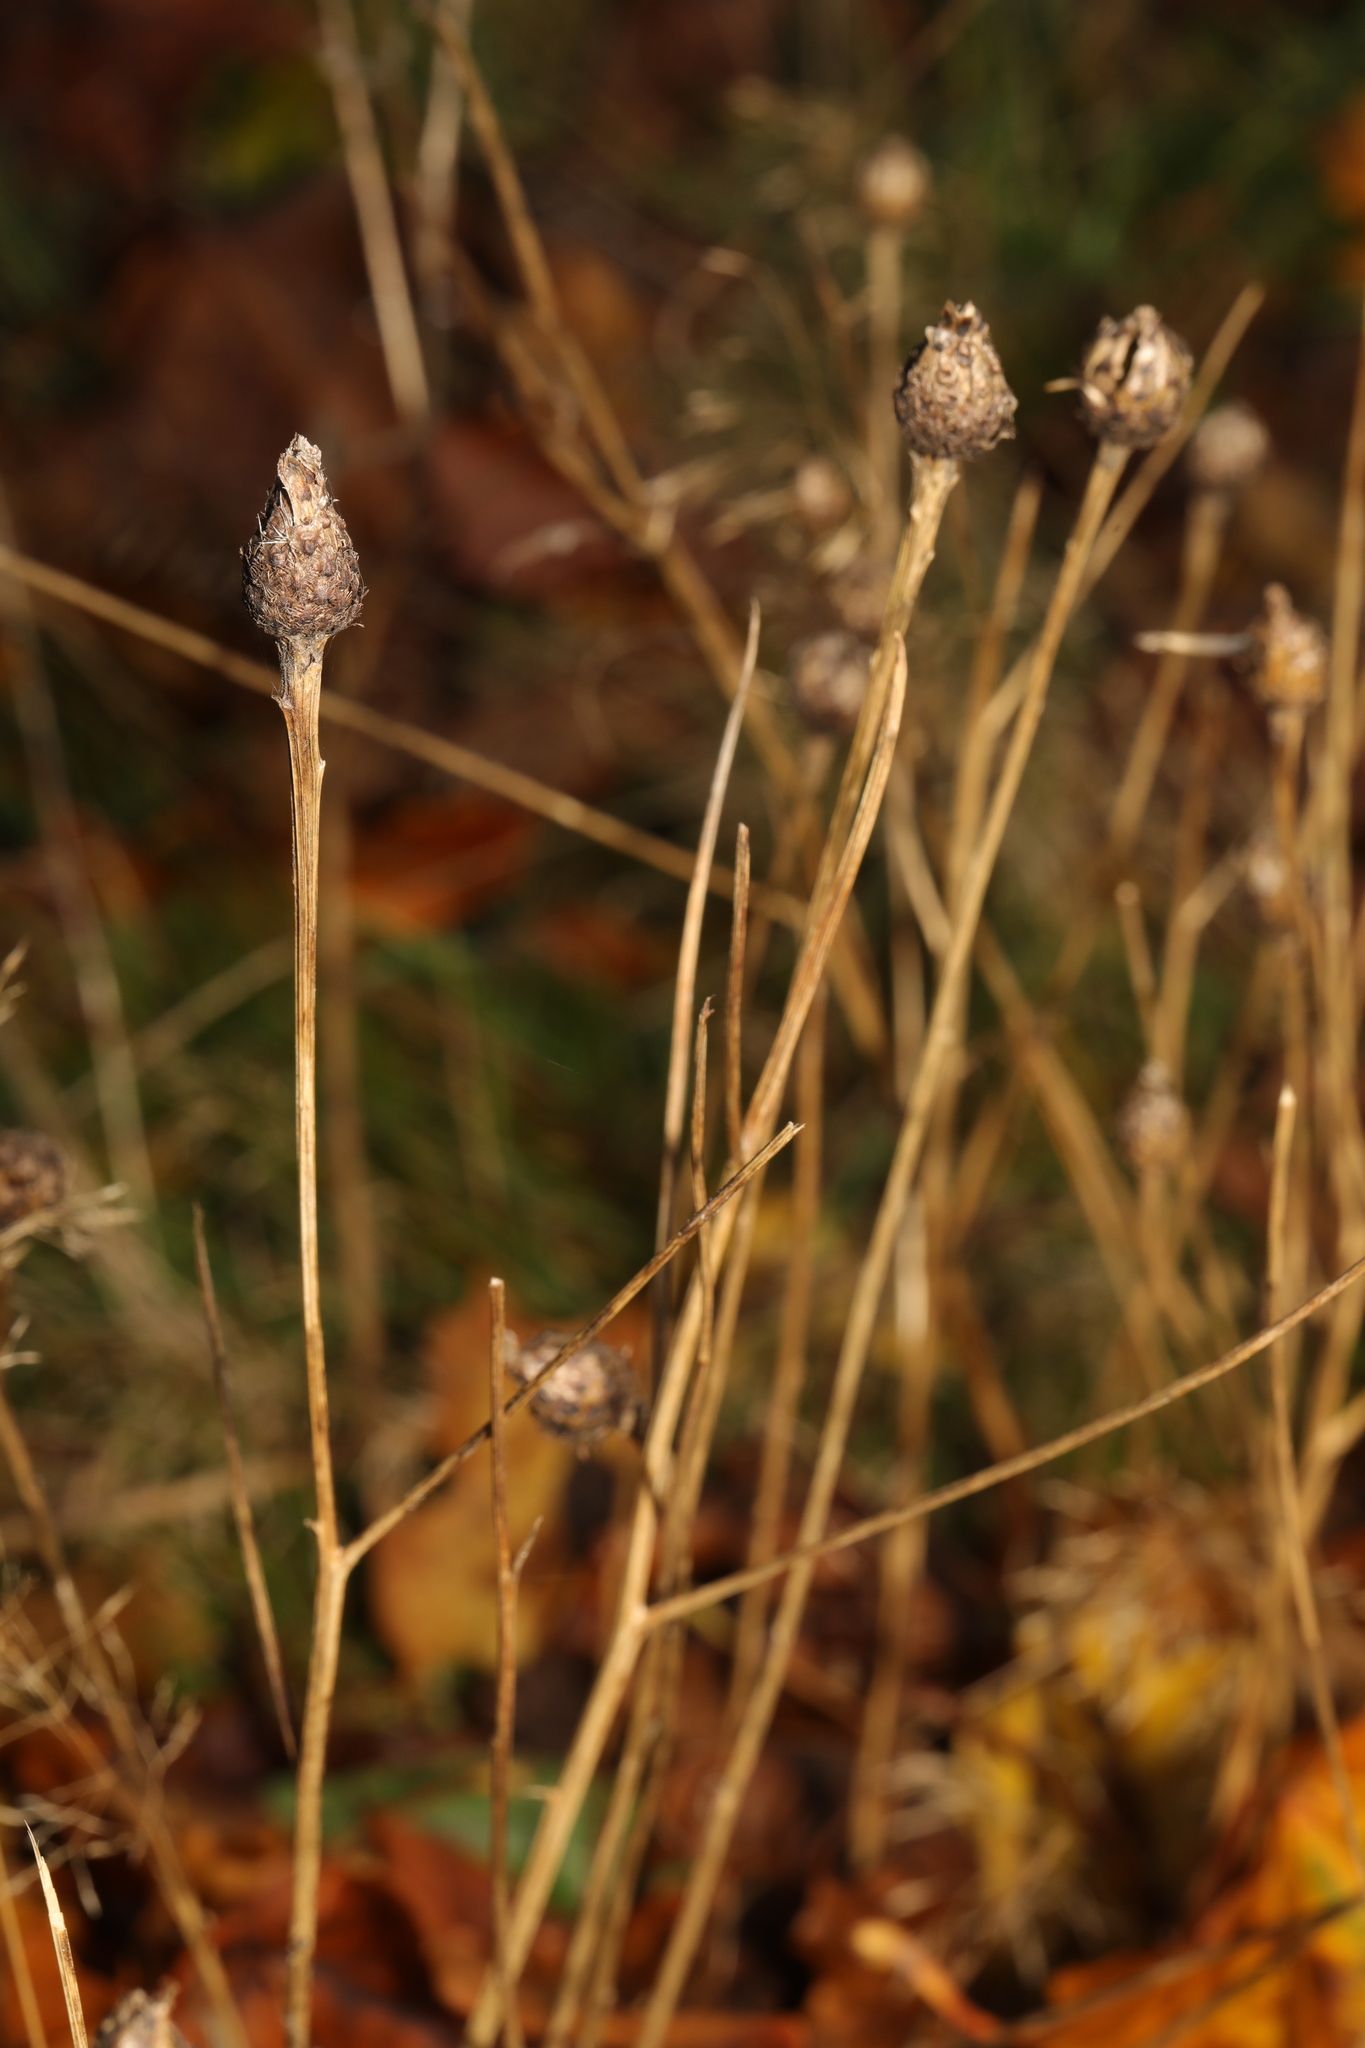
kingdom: Plantae
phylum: Tracheophyta
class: Magnoliopsida
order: Asterales
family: Asteraceae
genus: Centaurea
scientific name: Centaurea nigra
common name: Lesser knapweed
